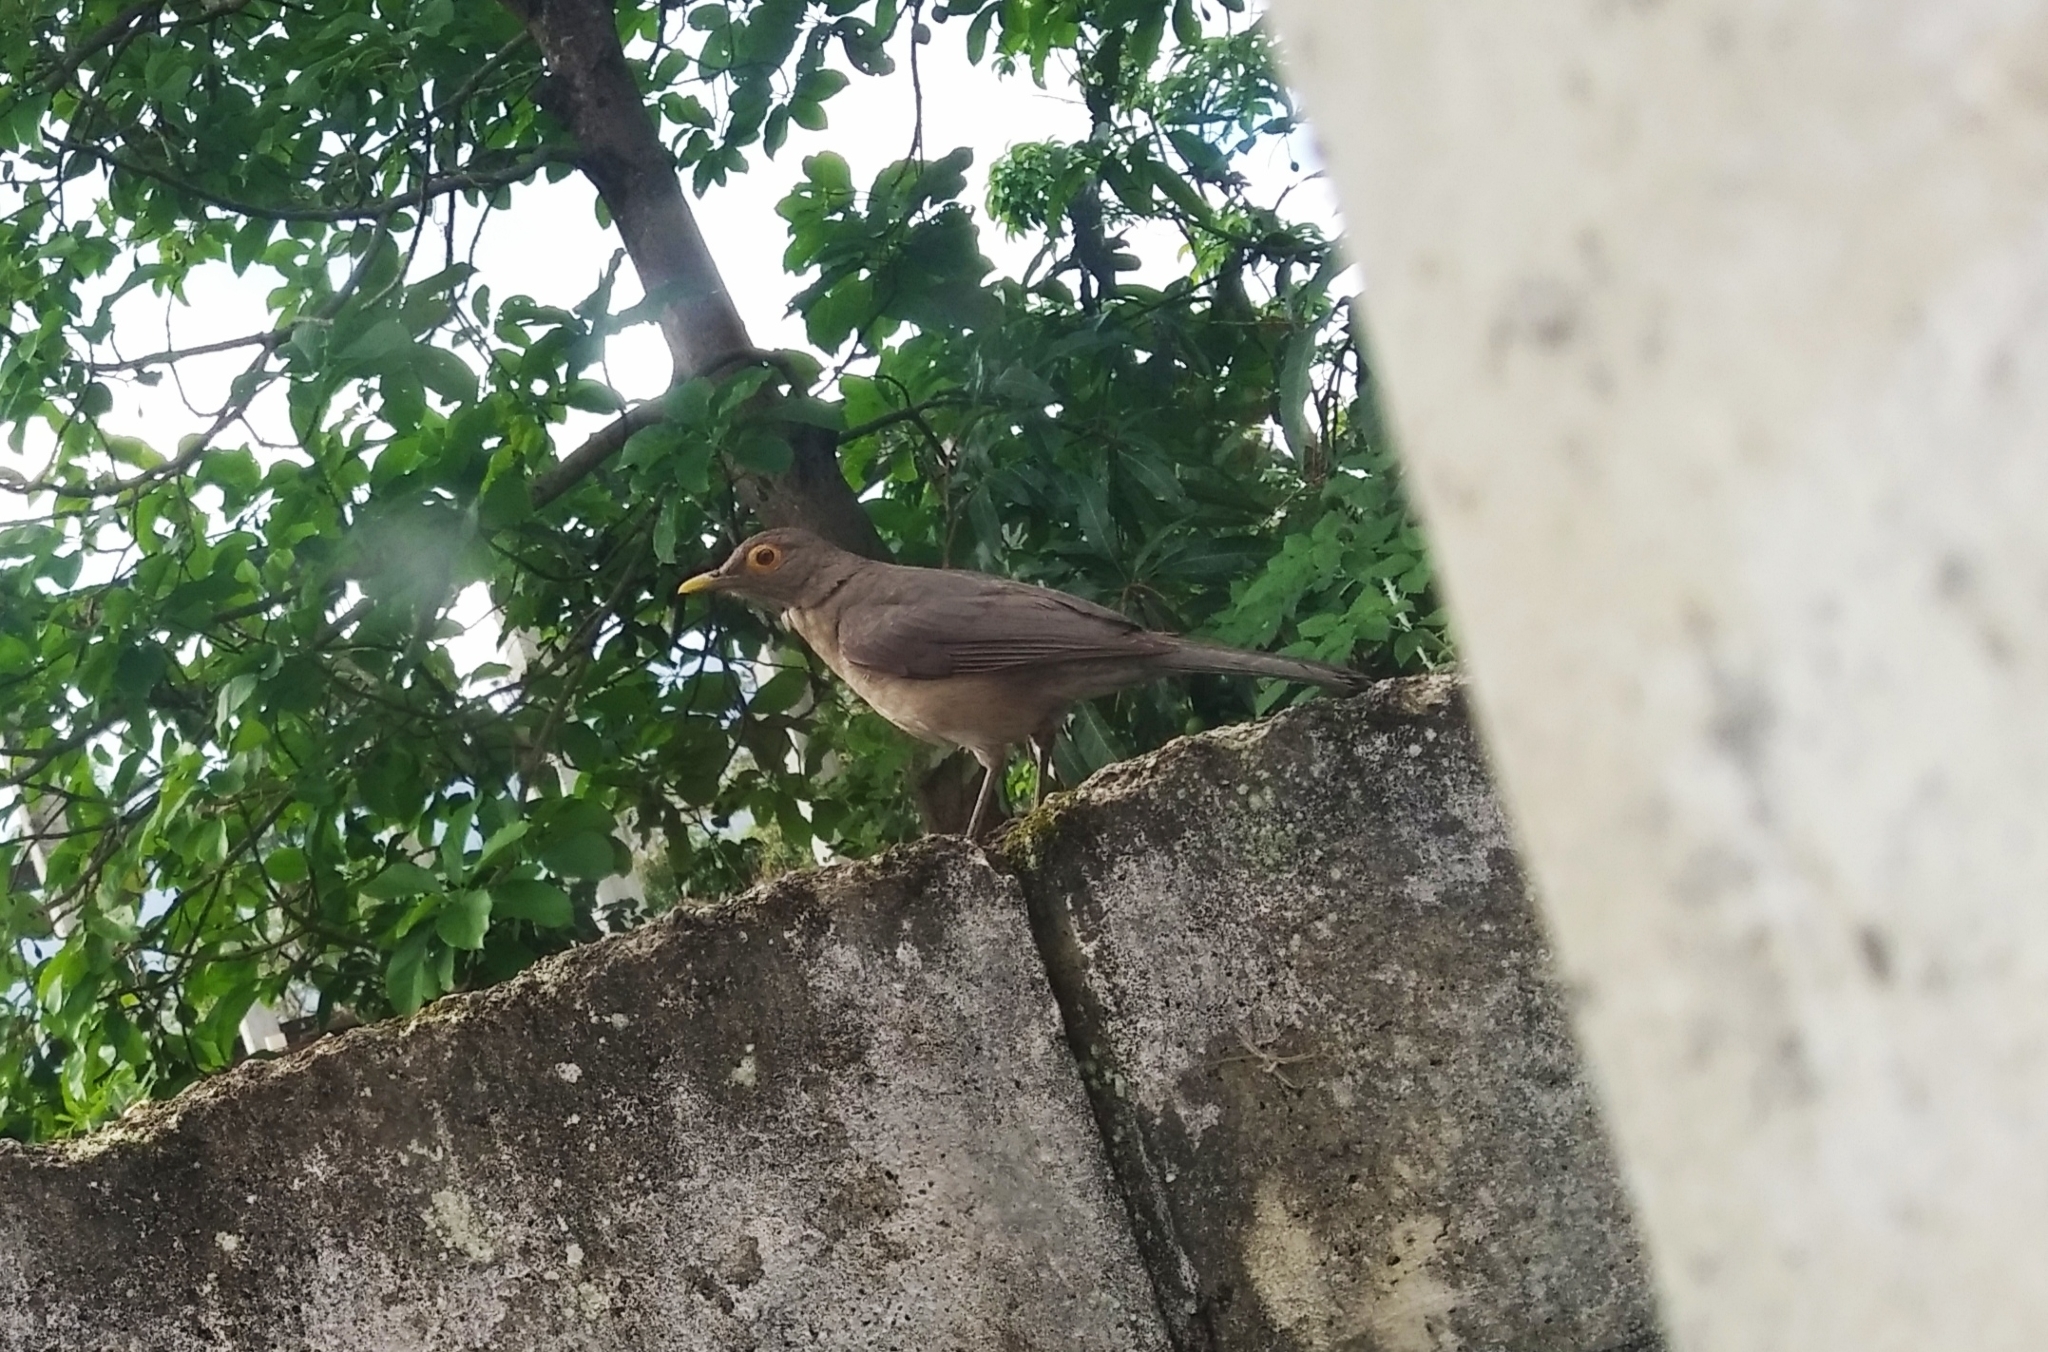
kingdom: Animalia
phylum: Chordata
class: Aves
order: Passeriformes
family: Turdidae
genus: Turdus
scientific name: Turdus nudigenis
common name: Spectacled thrush
